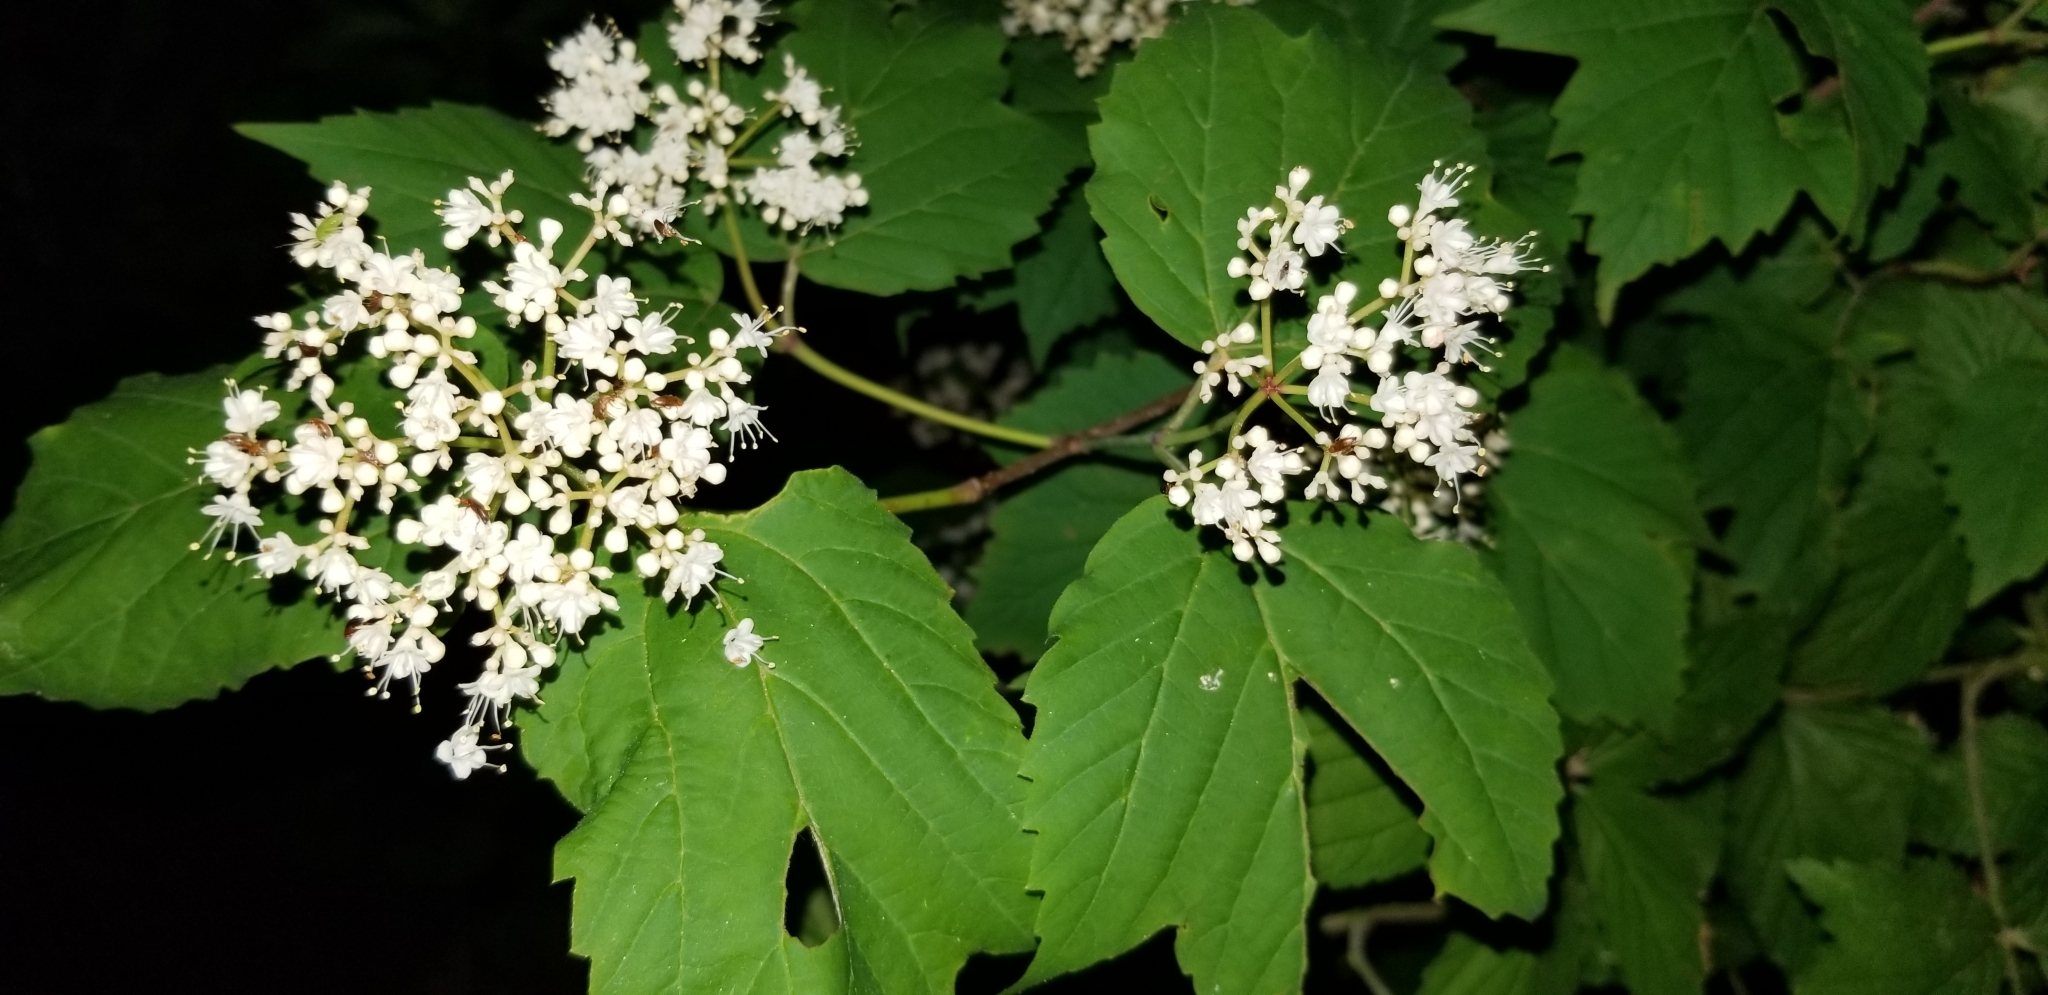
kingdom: Plantae
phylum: Tracheophyta
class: Magnoliopsida
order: Dipsacales
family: Viburnaceae
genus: Viburnum
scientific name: Viburnum acerifolium
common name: Dockmackie
